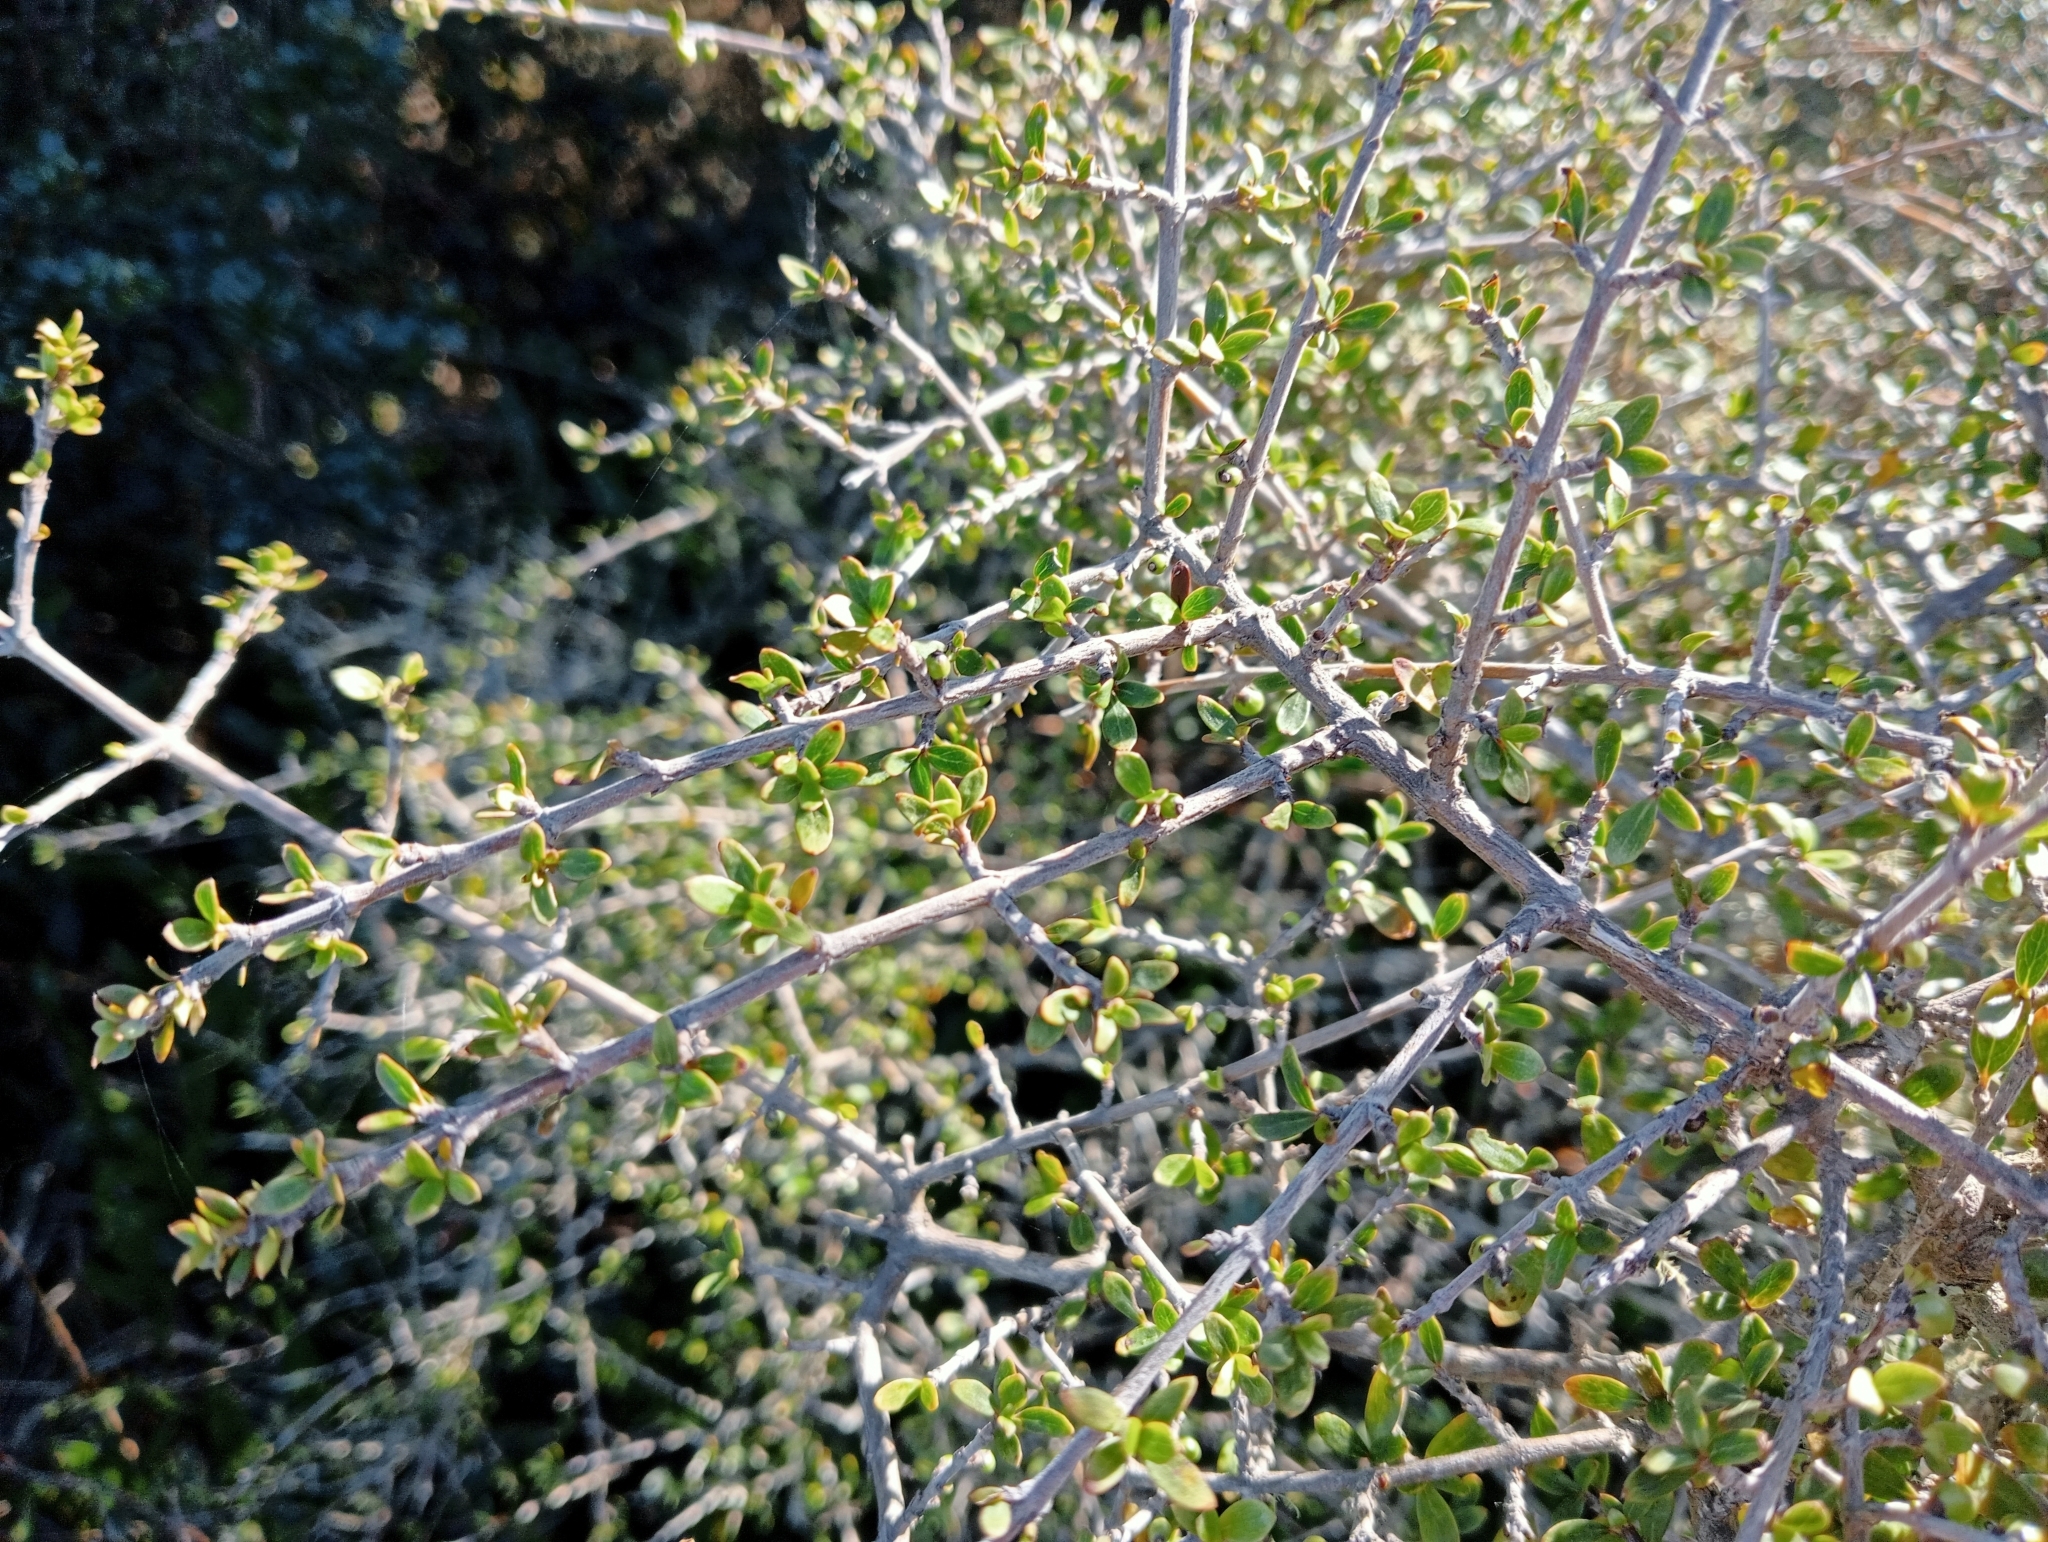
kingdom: Plantae
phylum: Tracheophyta
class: Magnoliopsida
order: Gentianales
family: Rubiaceae
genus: Coprosma
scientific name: Coprosma dumosa
